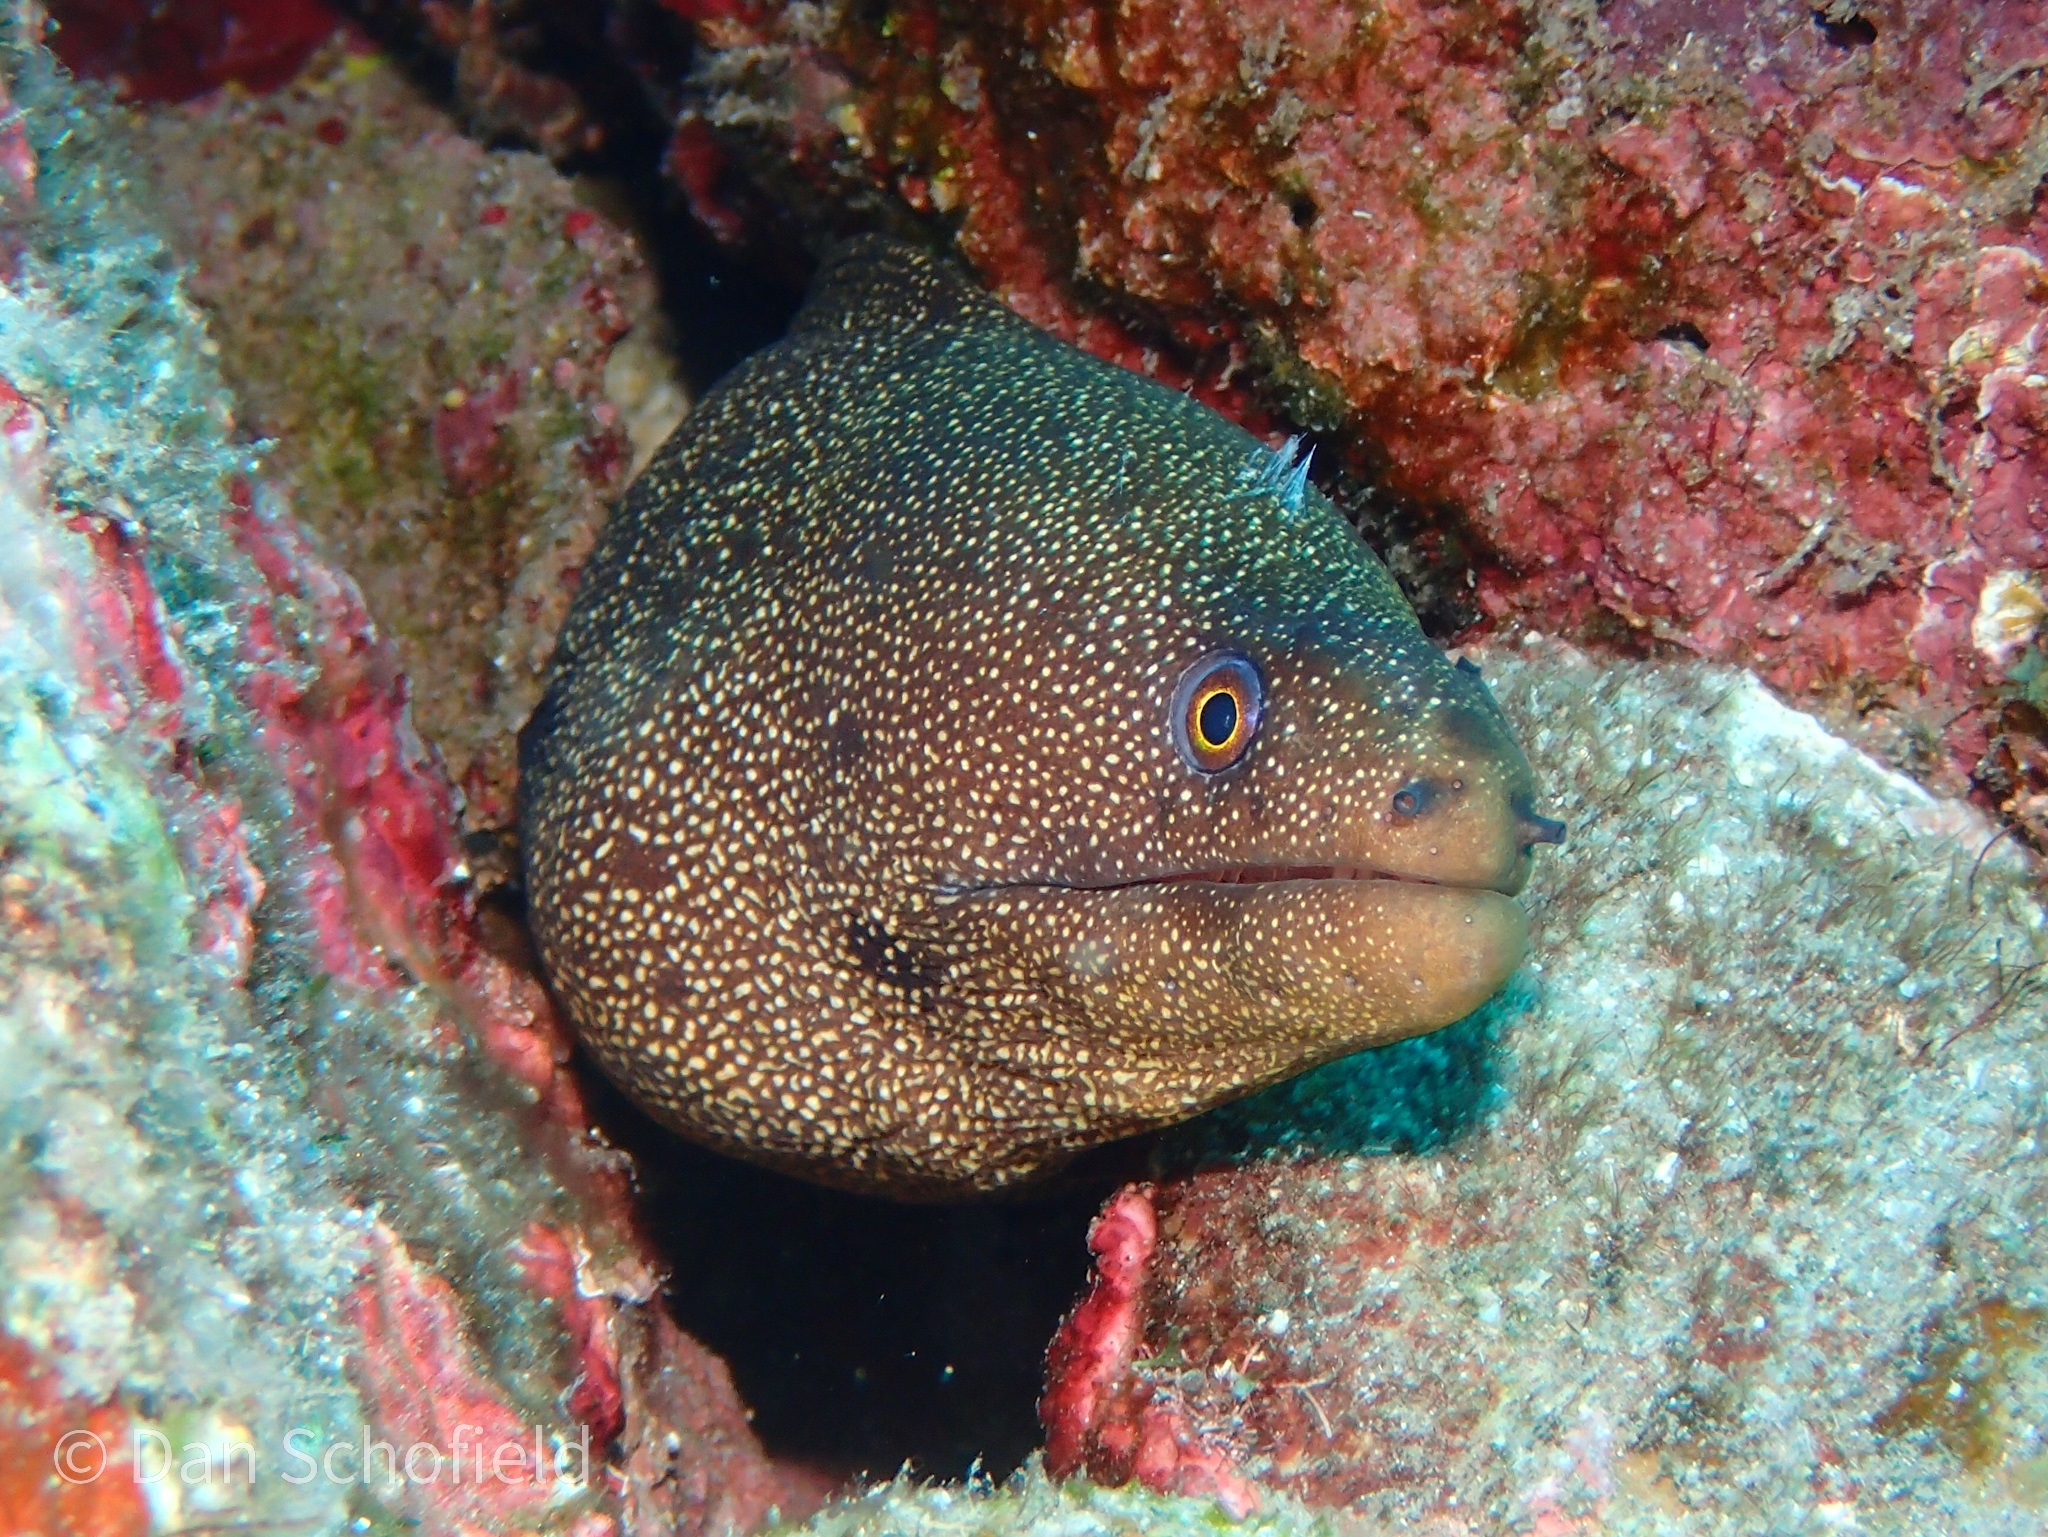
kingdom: Animalia
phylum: Chordata
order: Anguilliformes
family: Muraenidae
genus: Gymnothorax
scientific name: Gymnothorax miliaris
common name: Goldentail moray
